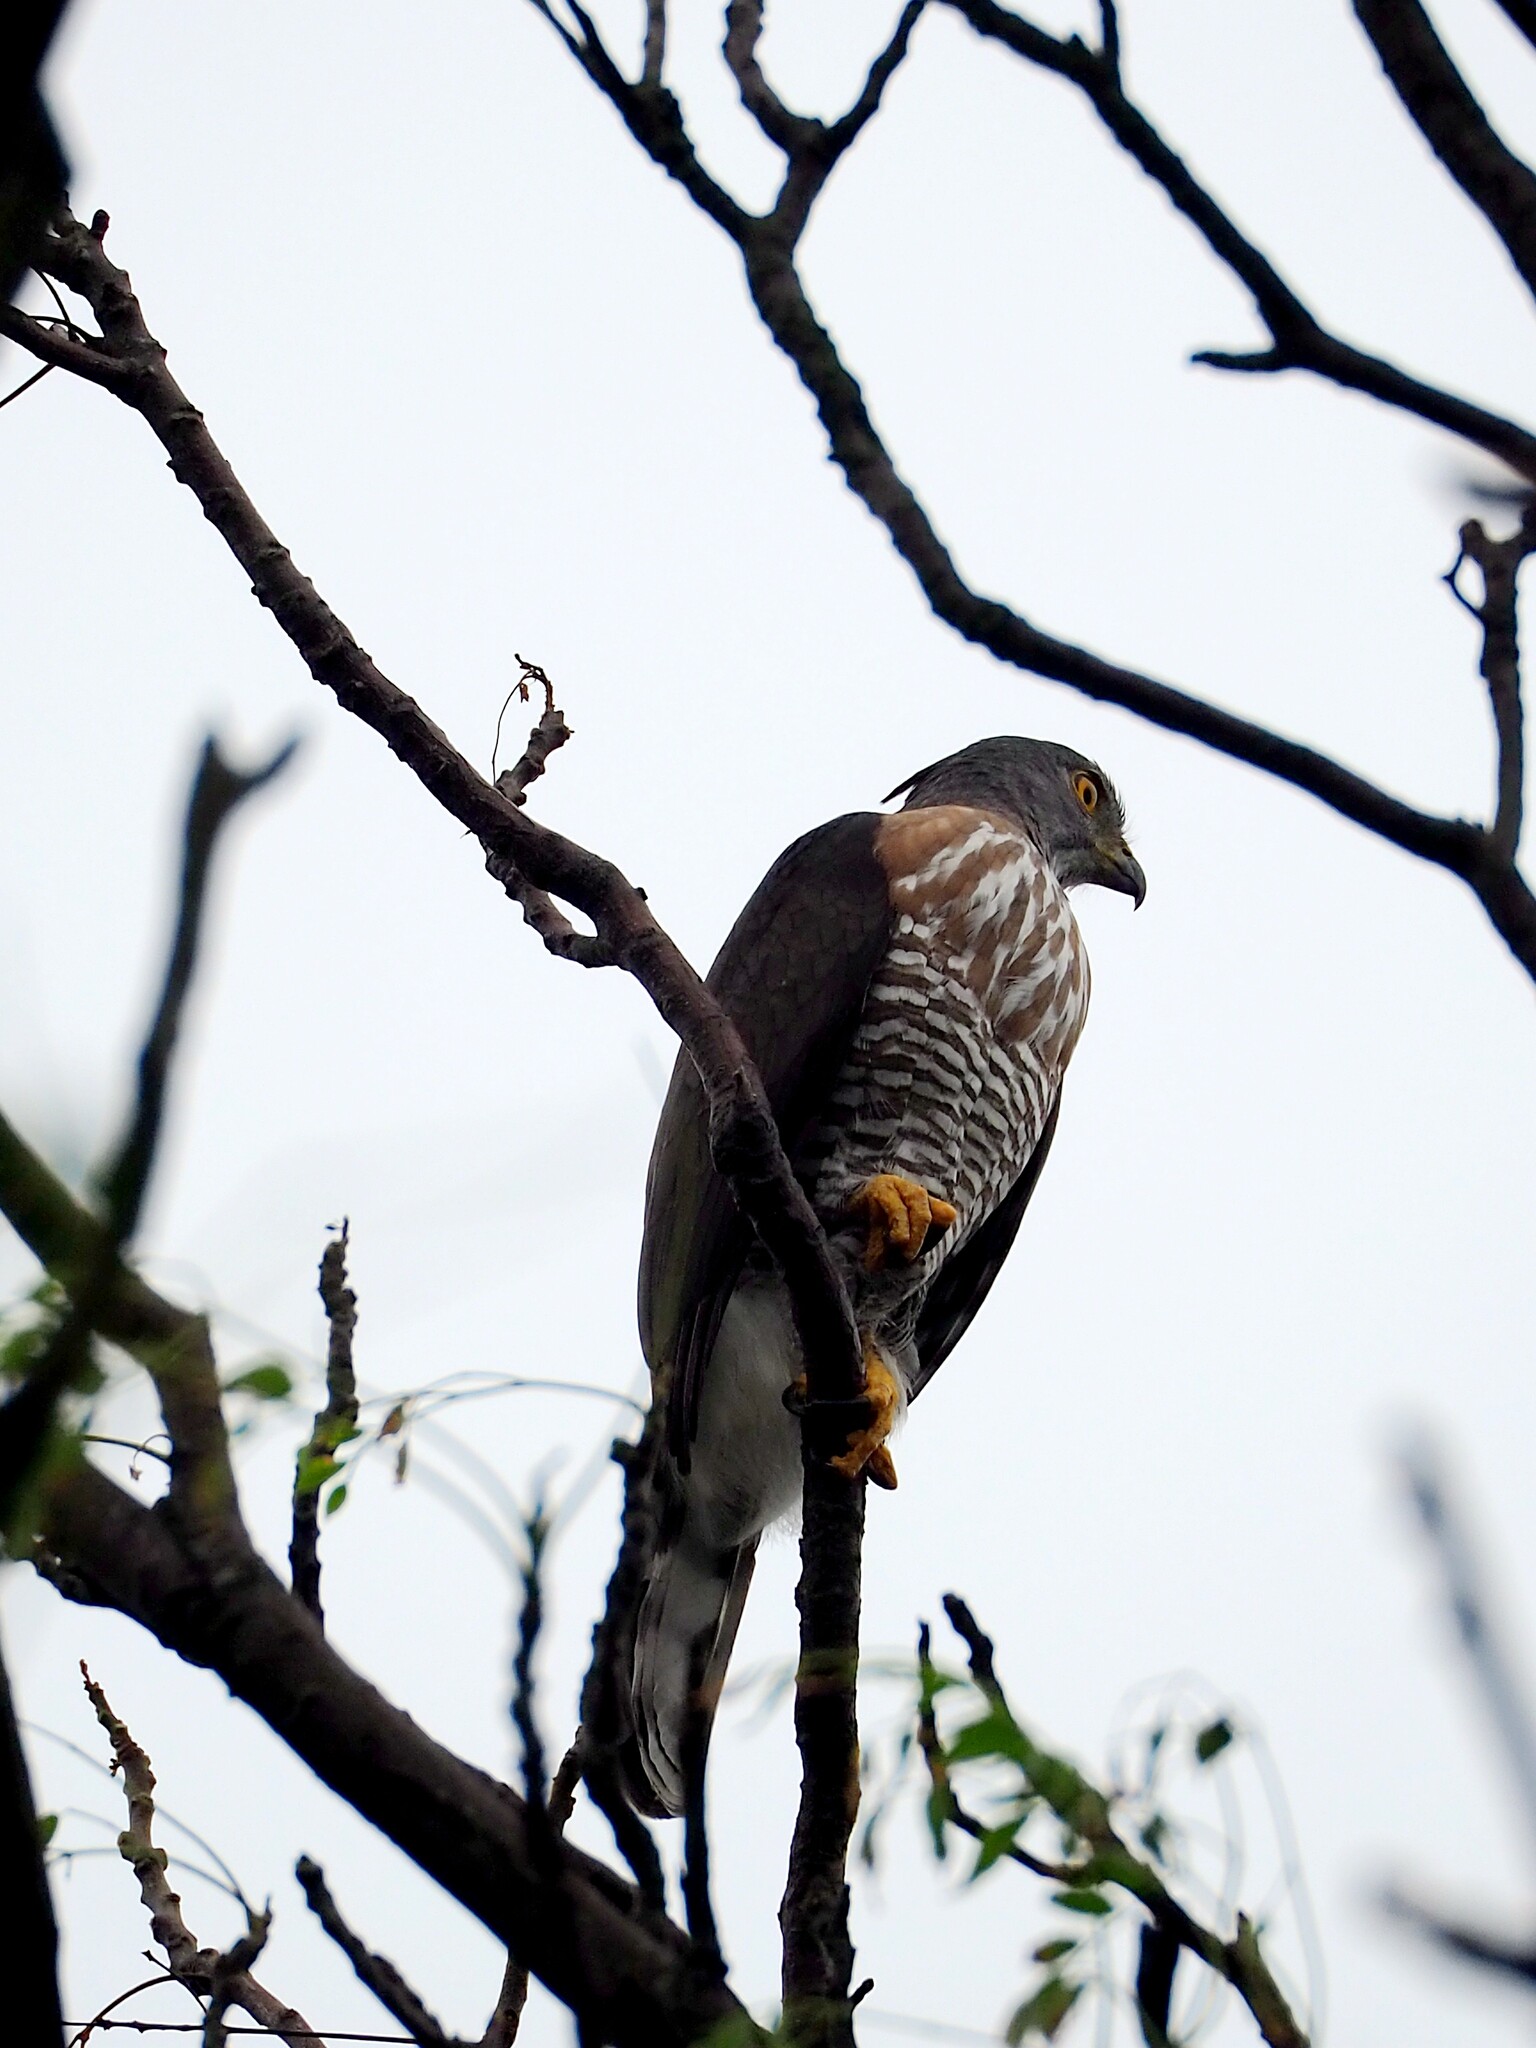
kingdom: Animalia
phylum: Chordata
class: Aves
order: Accipitriformes
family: Accipitridae
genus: Accipiter
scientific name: Accipiter trivirgatus
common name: Crested goshawk
